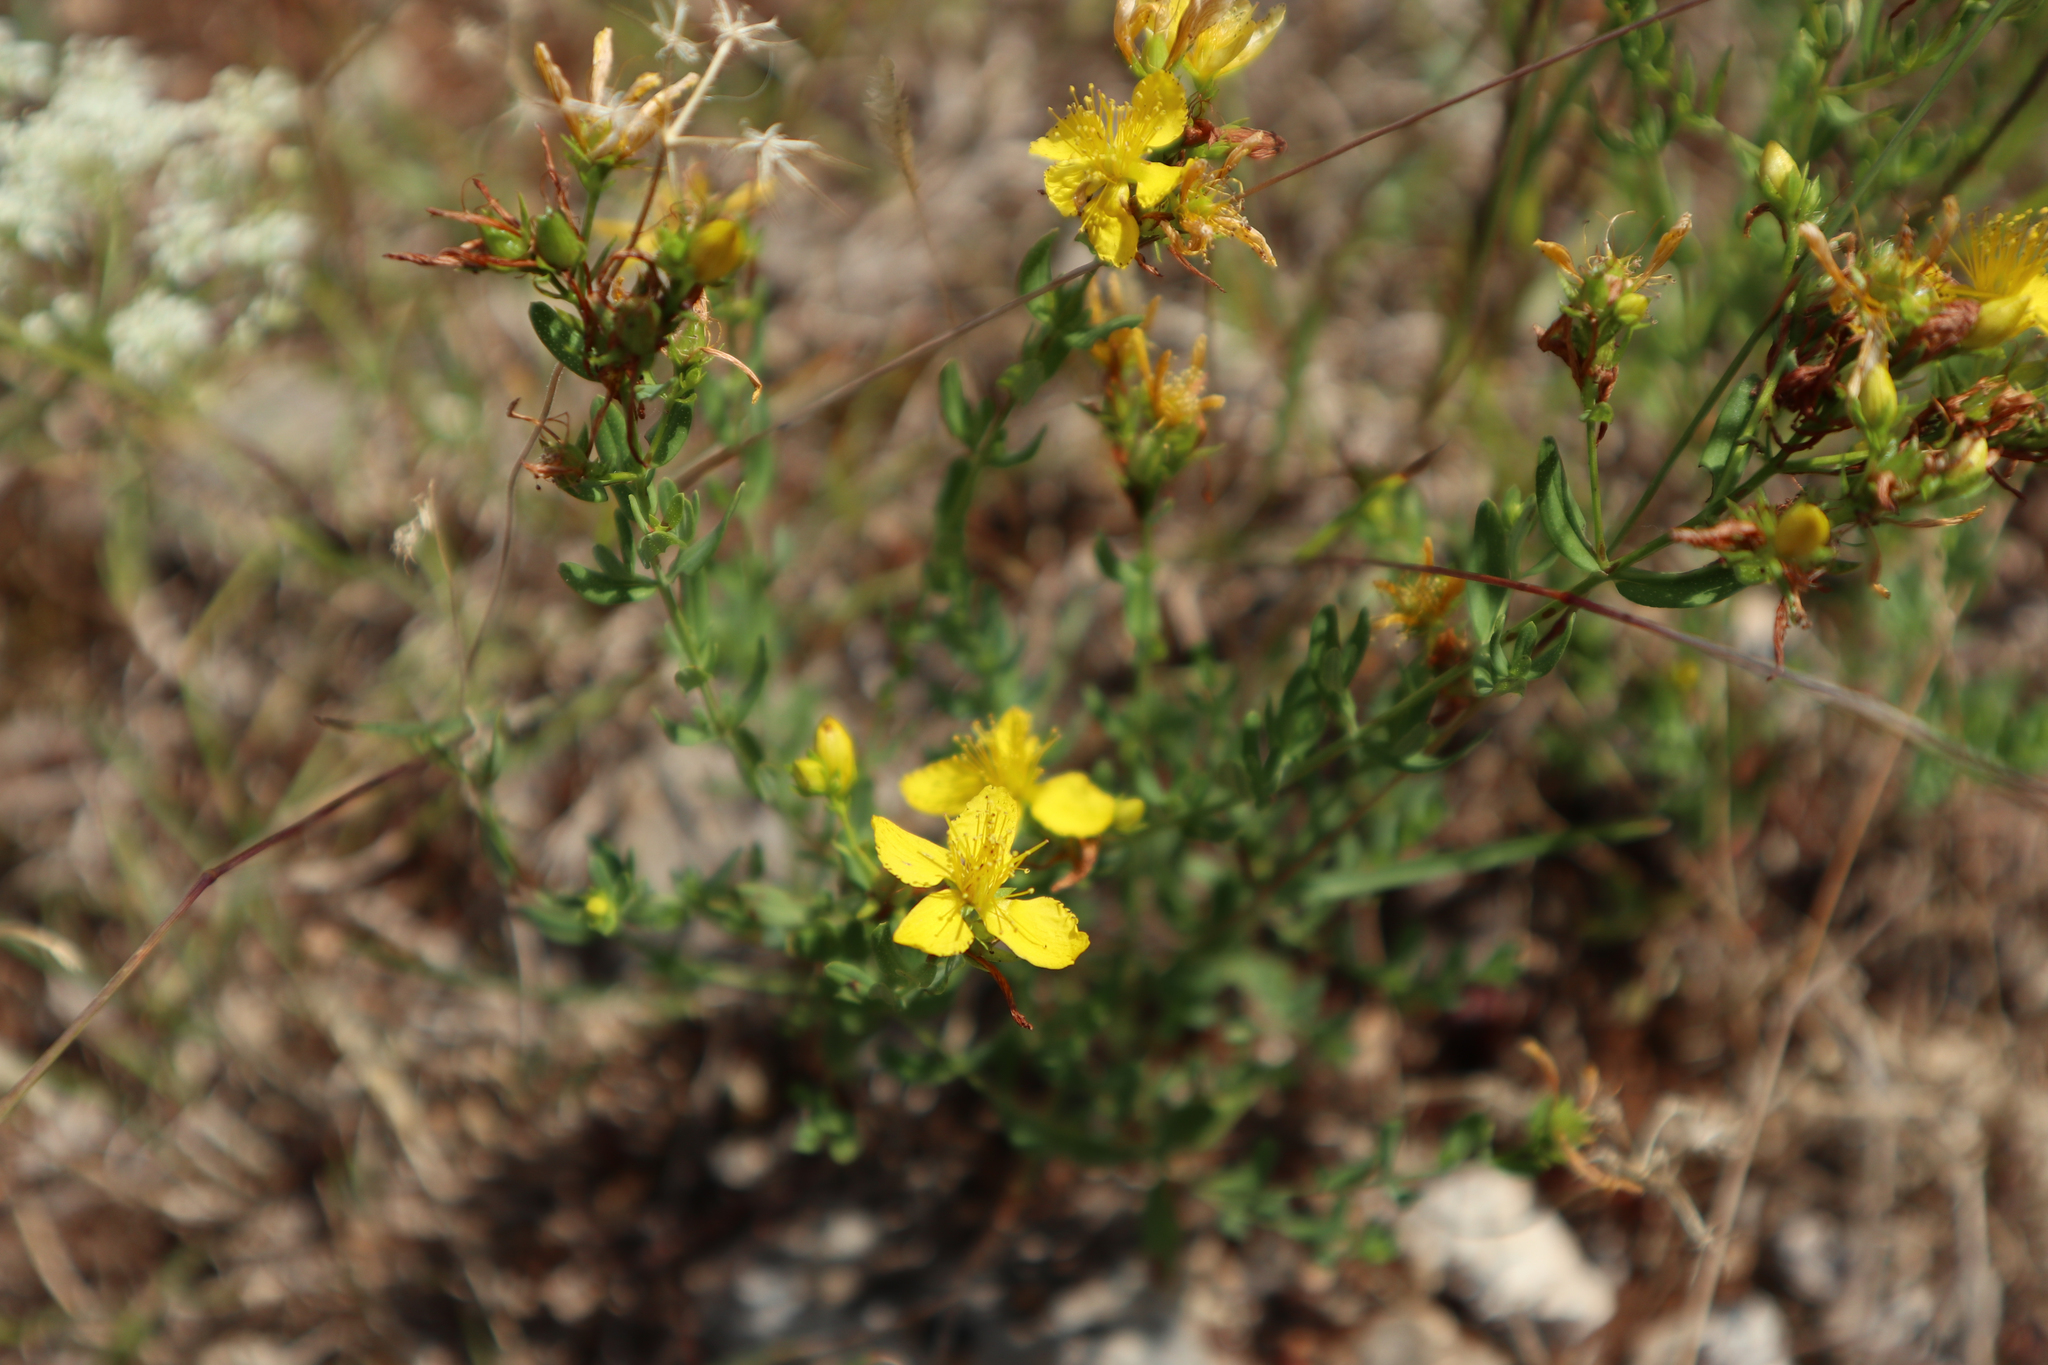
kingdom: Plantae
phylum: Tracheophyta
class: Magnoliopsida
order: Malpighiales
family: Hypericaceae
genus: Hypericum
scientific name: Hypericum perforatum
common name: Common st. johnswort
